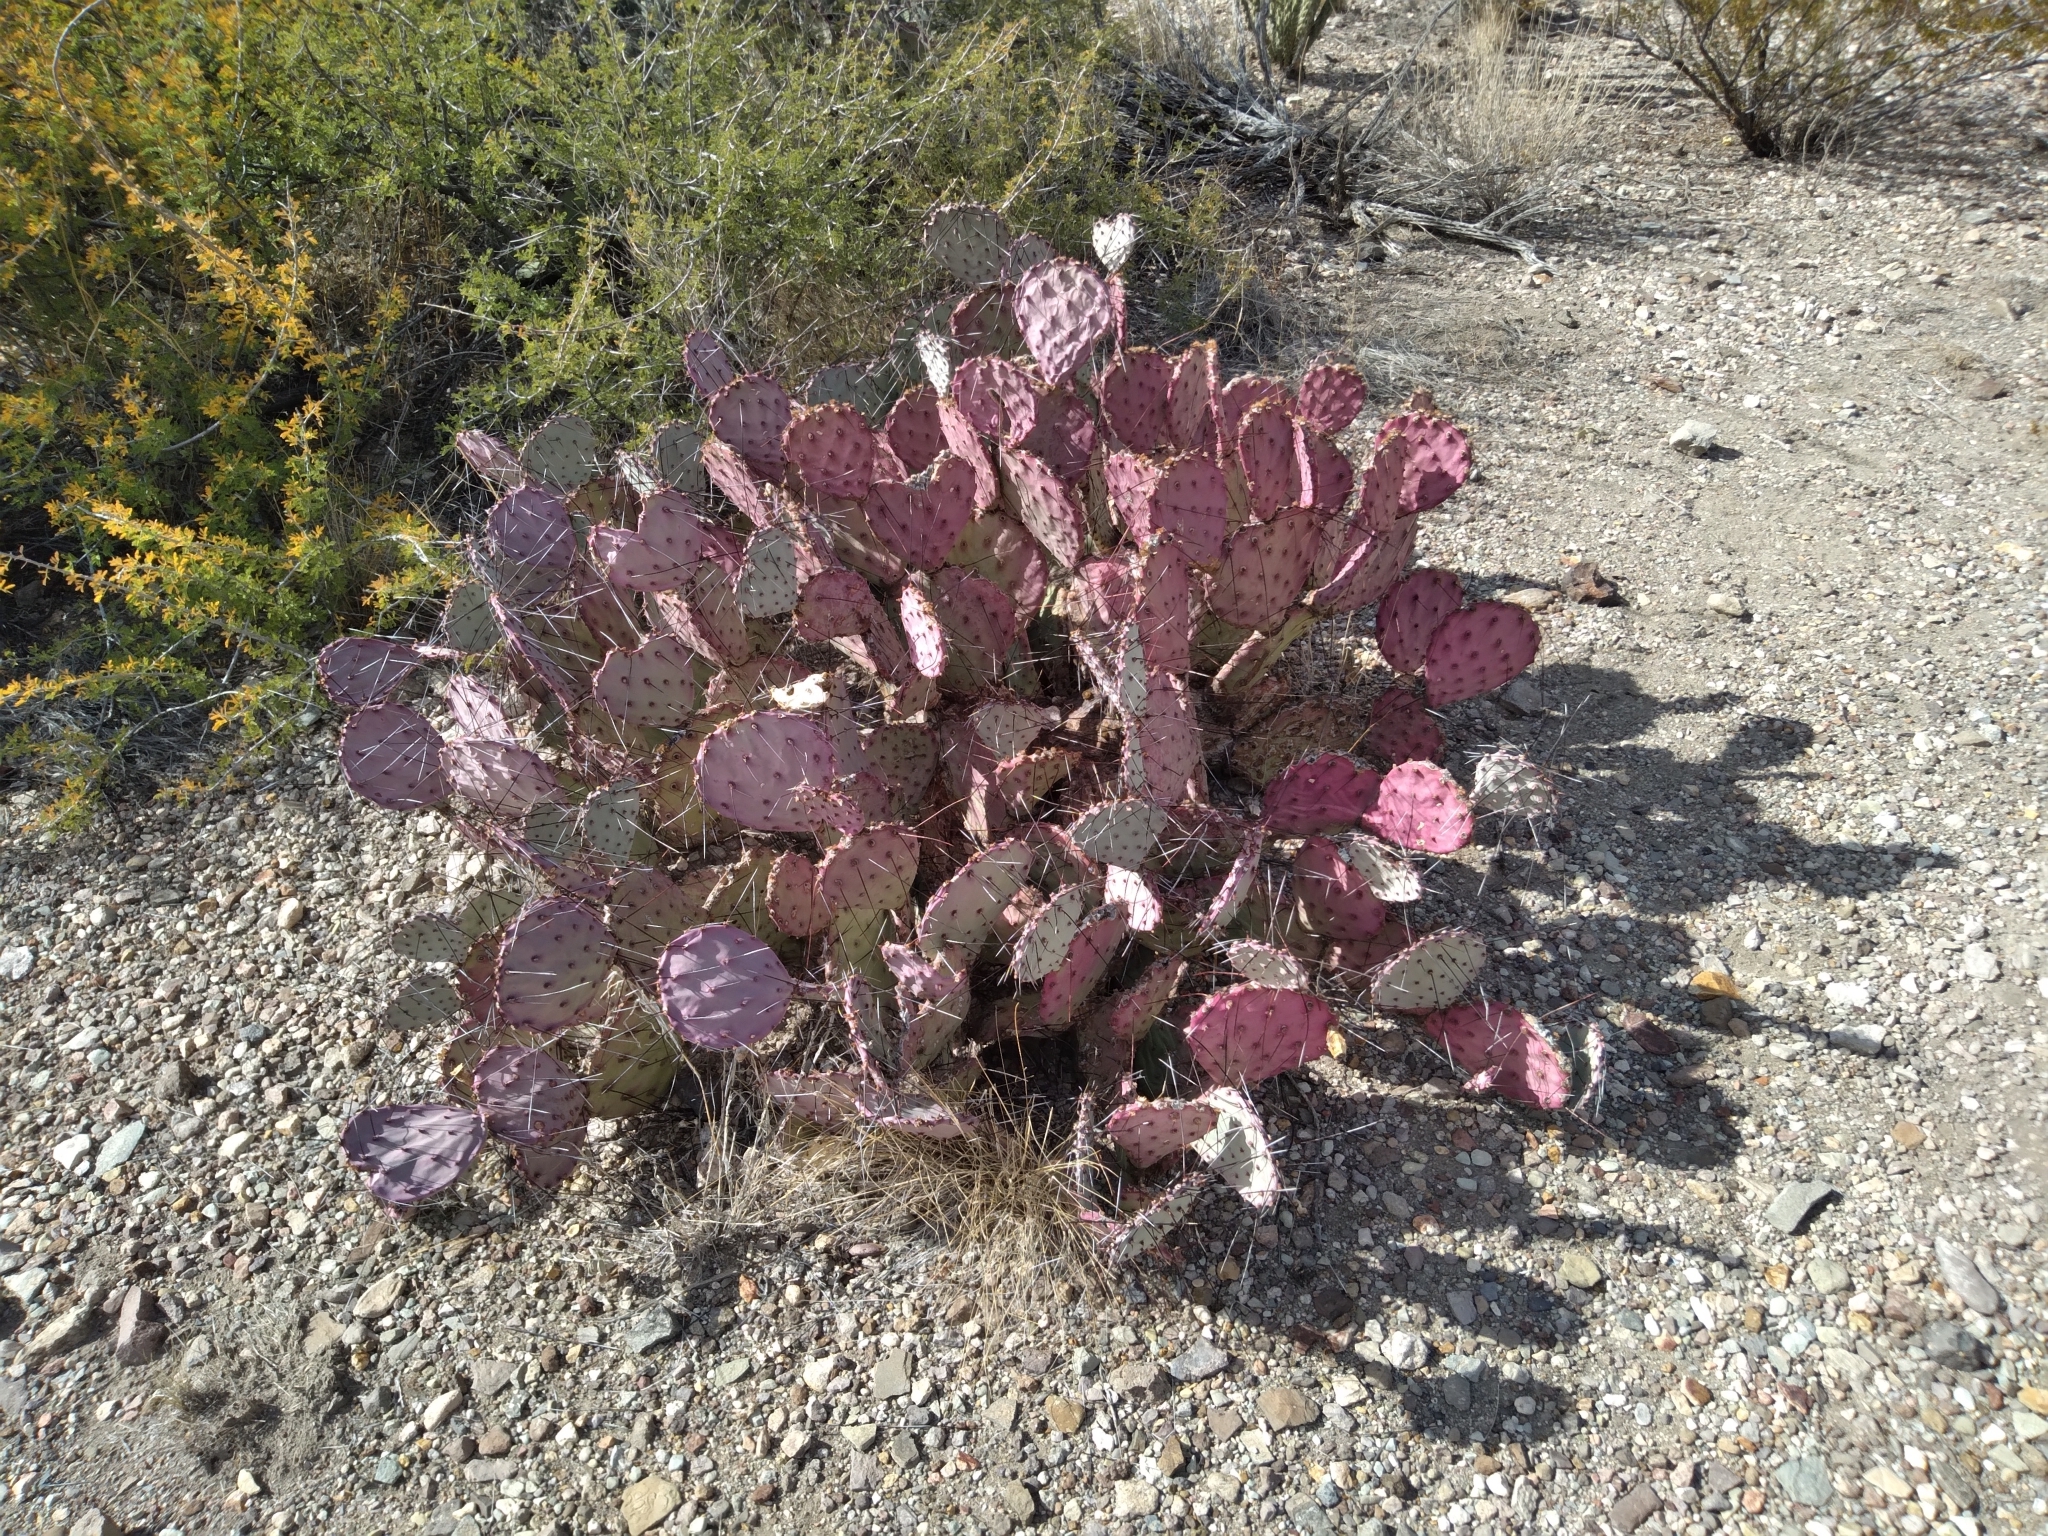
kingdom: Plantae
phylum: Tracheophyta
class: Magnoliopsida
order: Caryophyllales
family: Cactaceae
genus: Opuntia
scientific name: Opuntia phaeacantha
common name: New mexico prickly-pear
